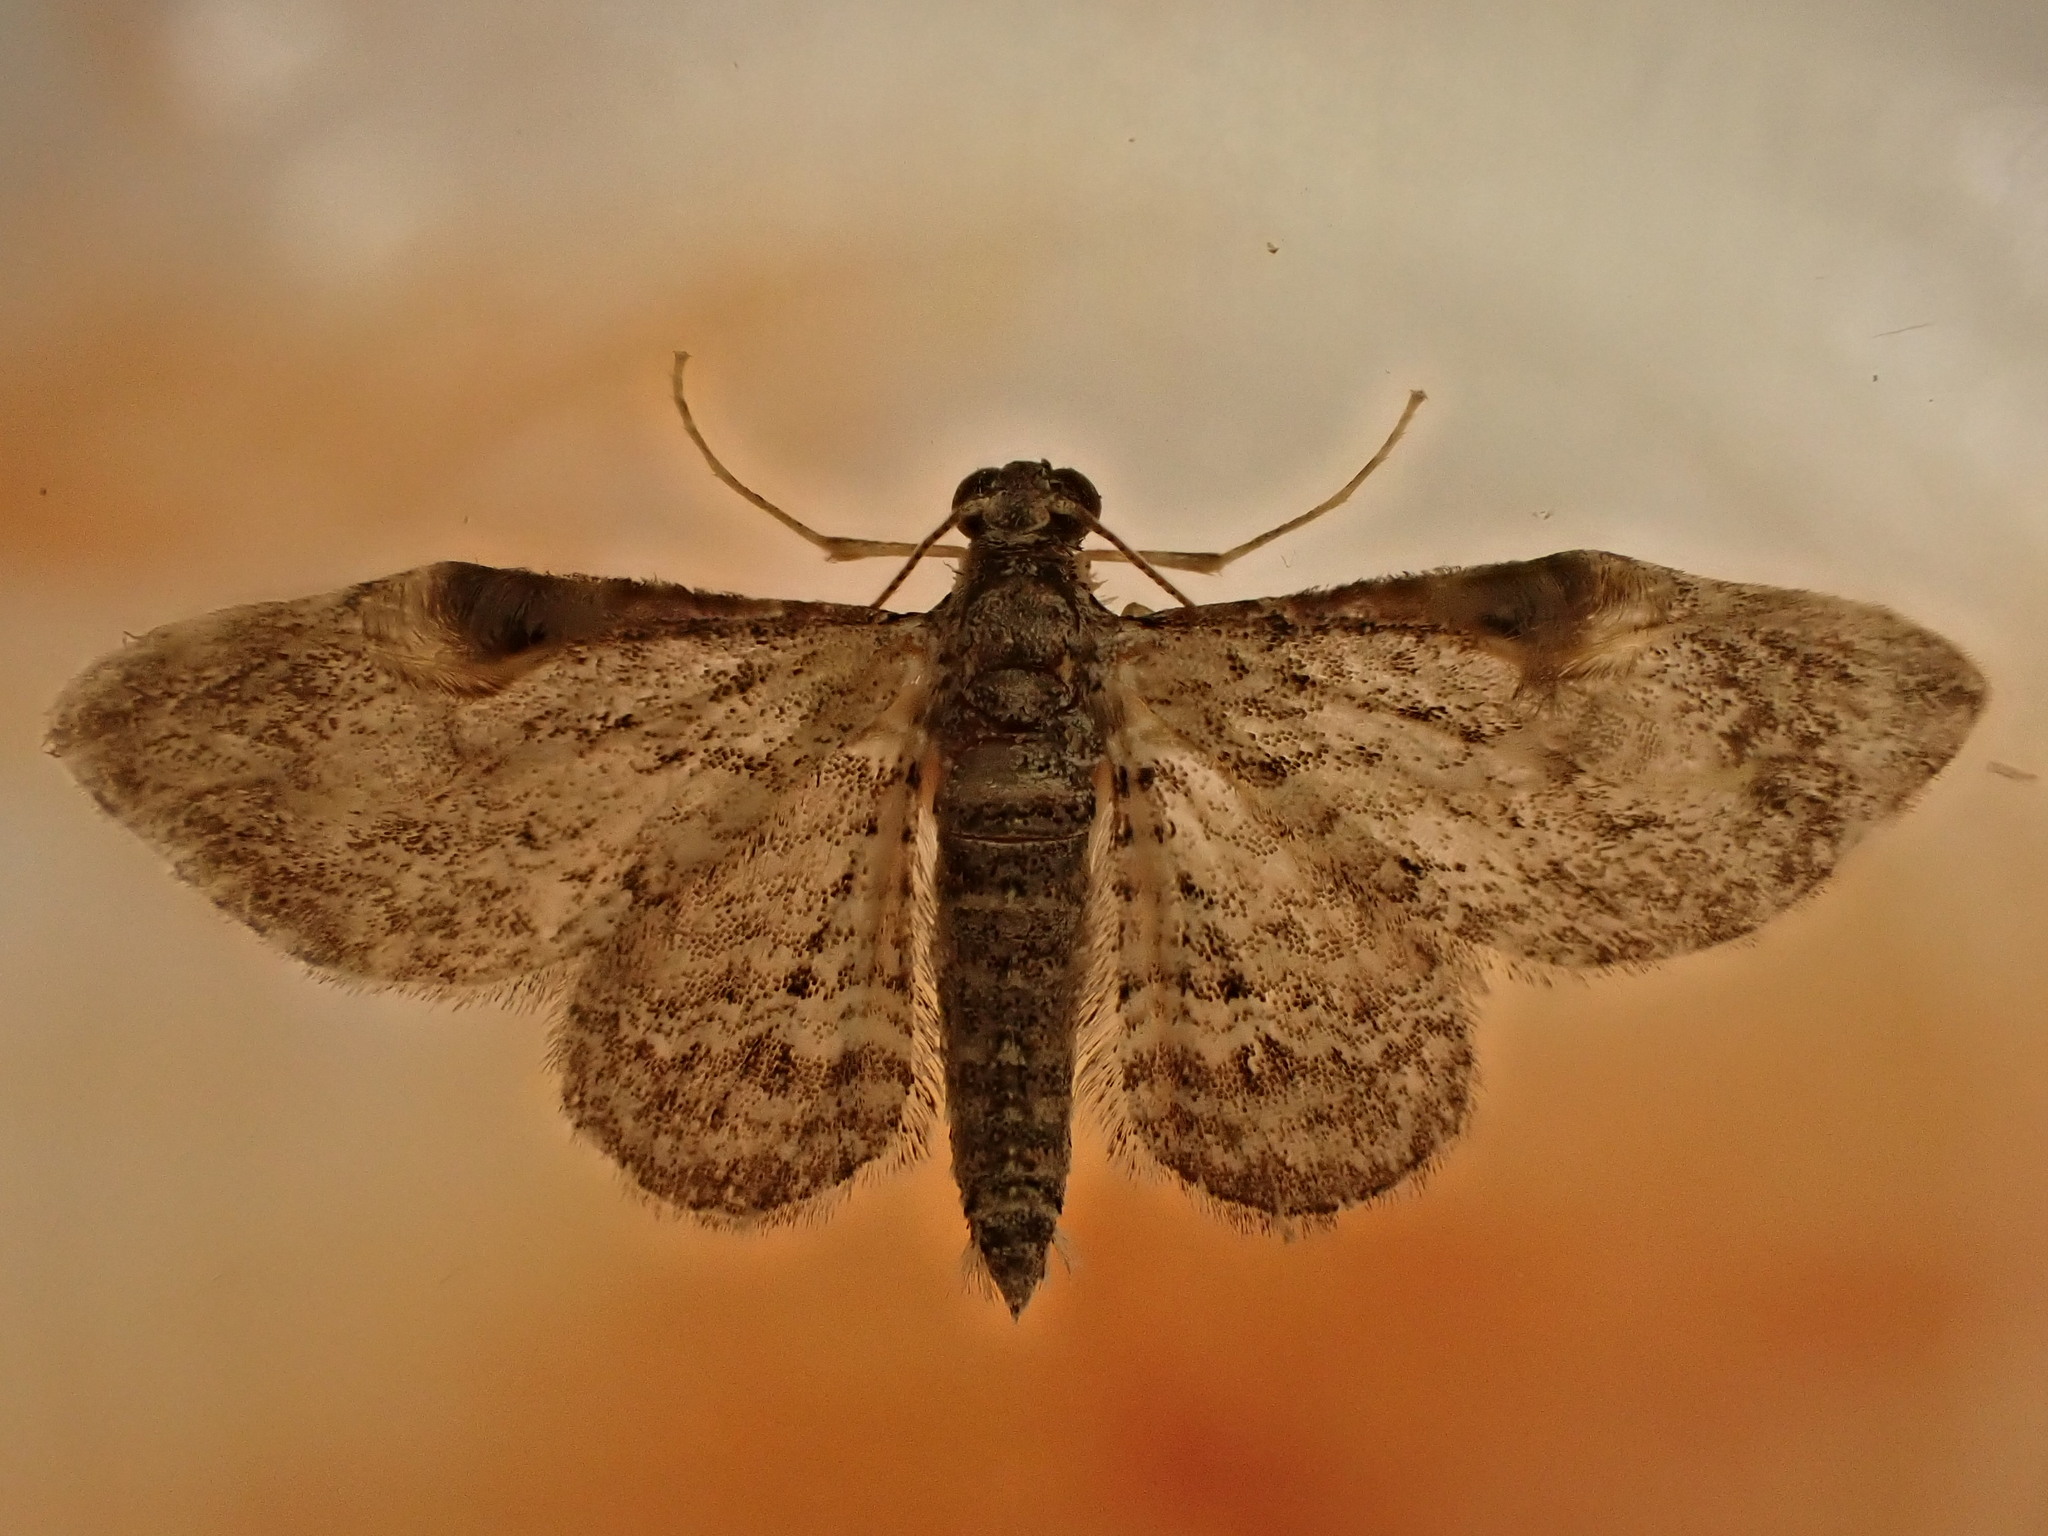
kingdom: Animalia
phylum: Arthropoda
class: Insecta
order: Lepidoptera
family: Geometridae
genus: Chloroclystis
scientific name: Chloroclystis insigillata
